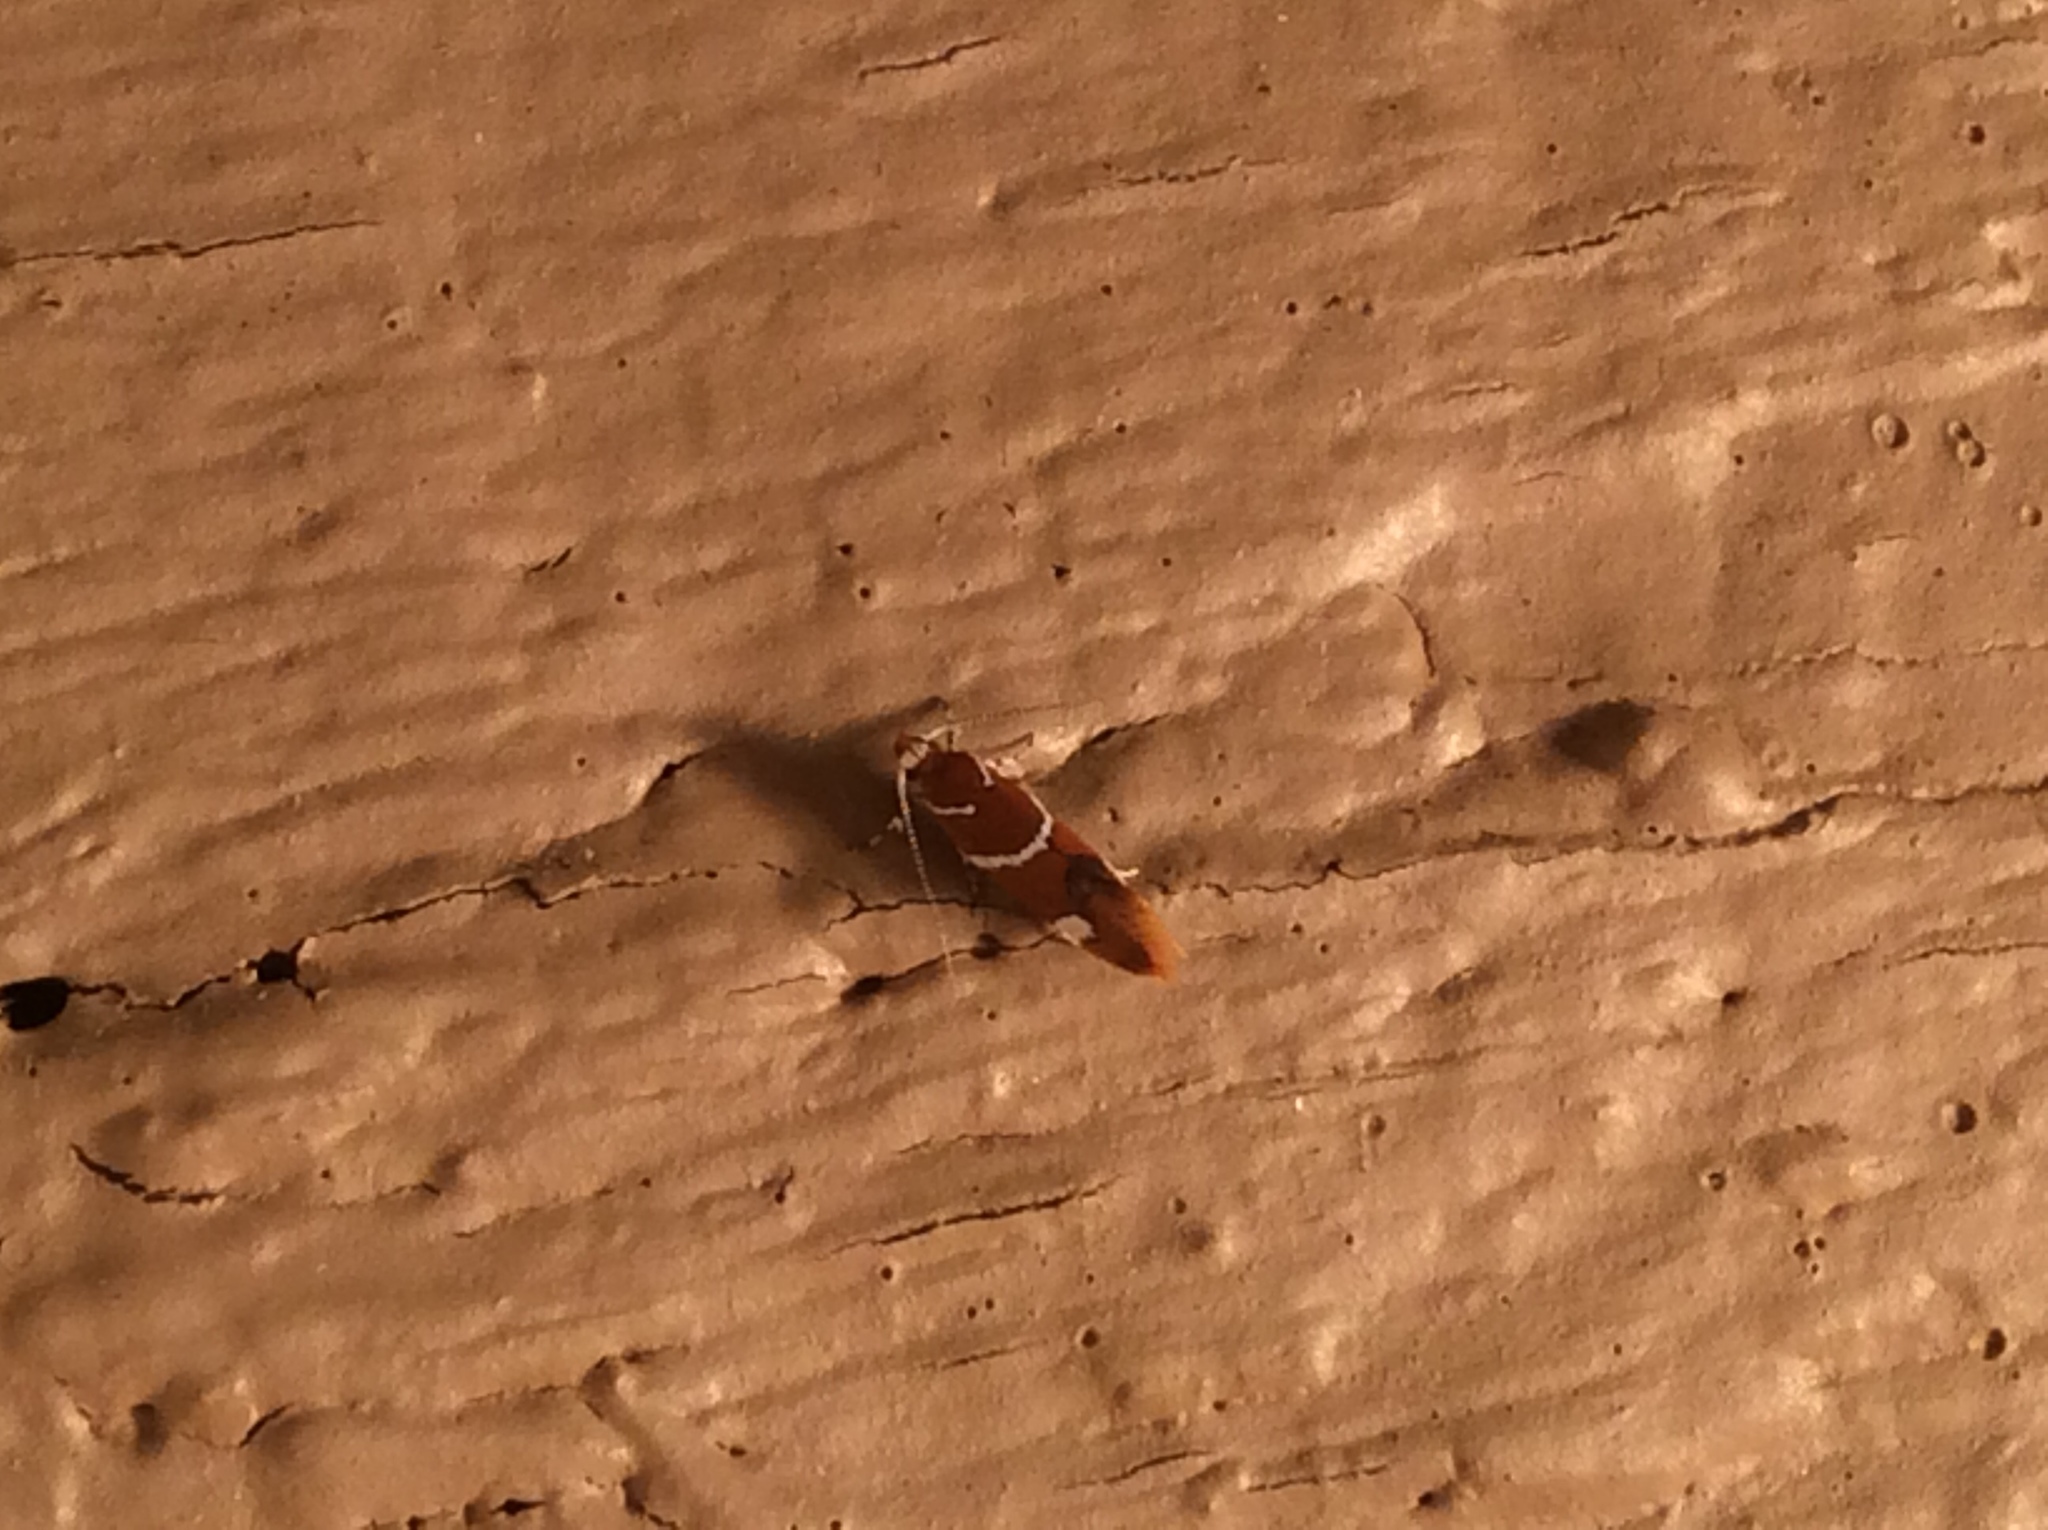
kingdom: Animalia
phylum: Arthropoda
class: Insecta
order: Lepidoptera
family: Oecophoridae
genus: Promalactis
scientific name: Promalactis suzukiella
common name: Moth
